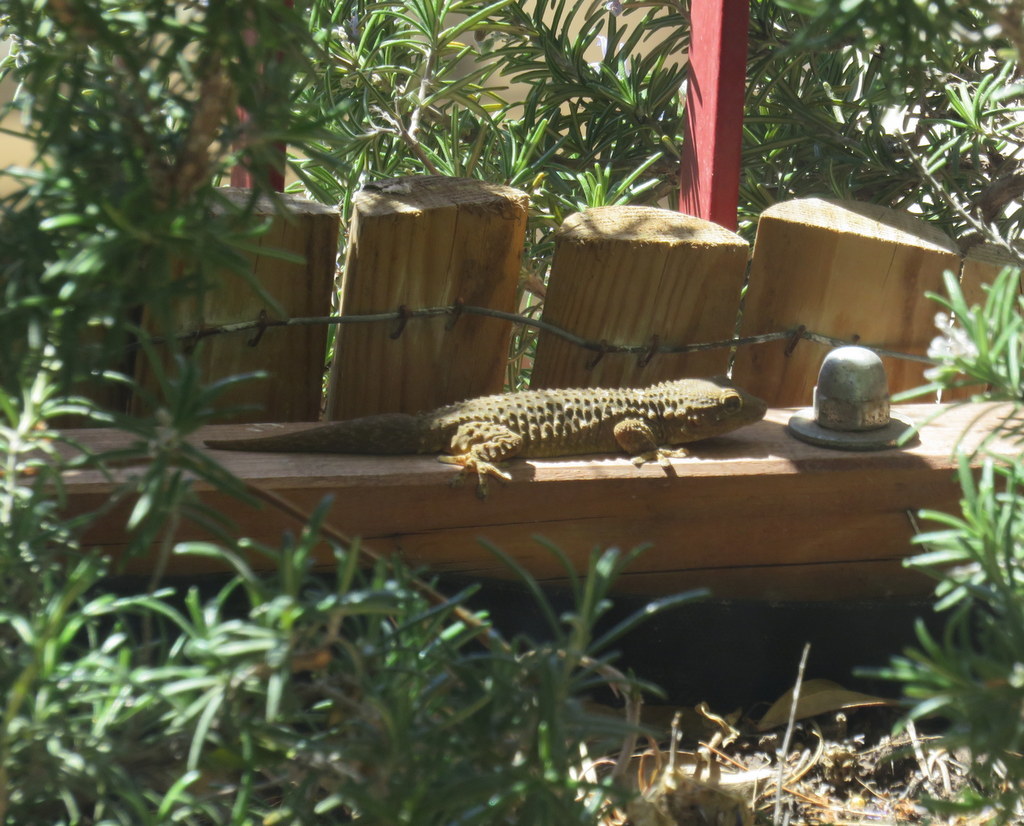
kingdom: Animalia
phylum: Chordata
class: Squamata
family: Phyllodactylidae
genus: Tarentola
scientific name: Tarentola mauritanica
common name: Moorish gecko
